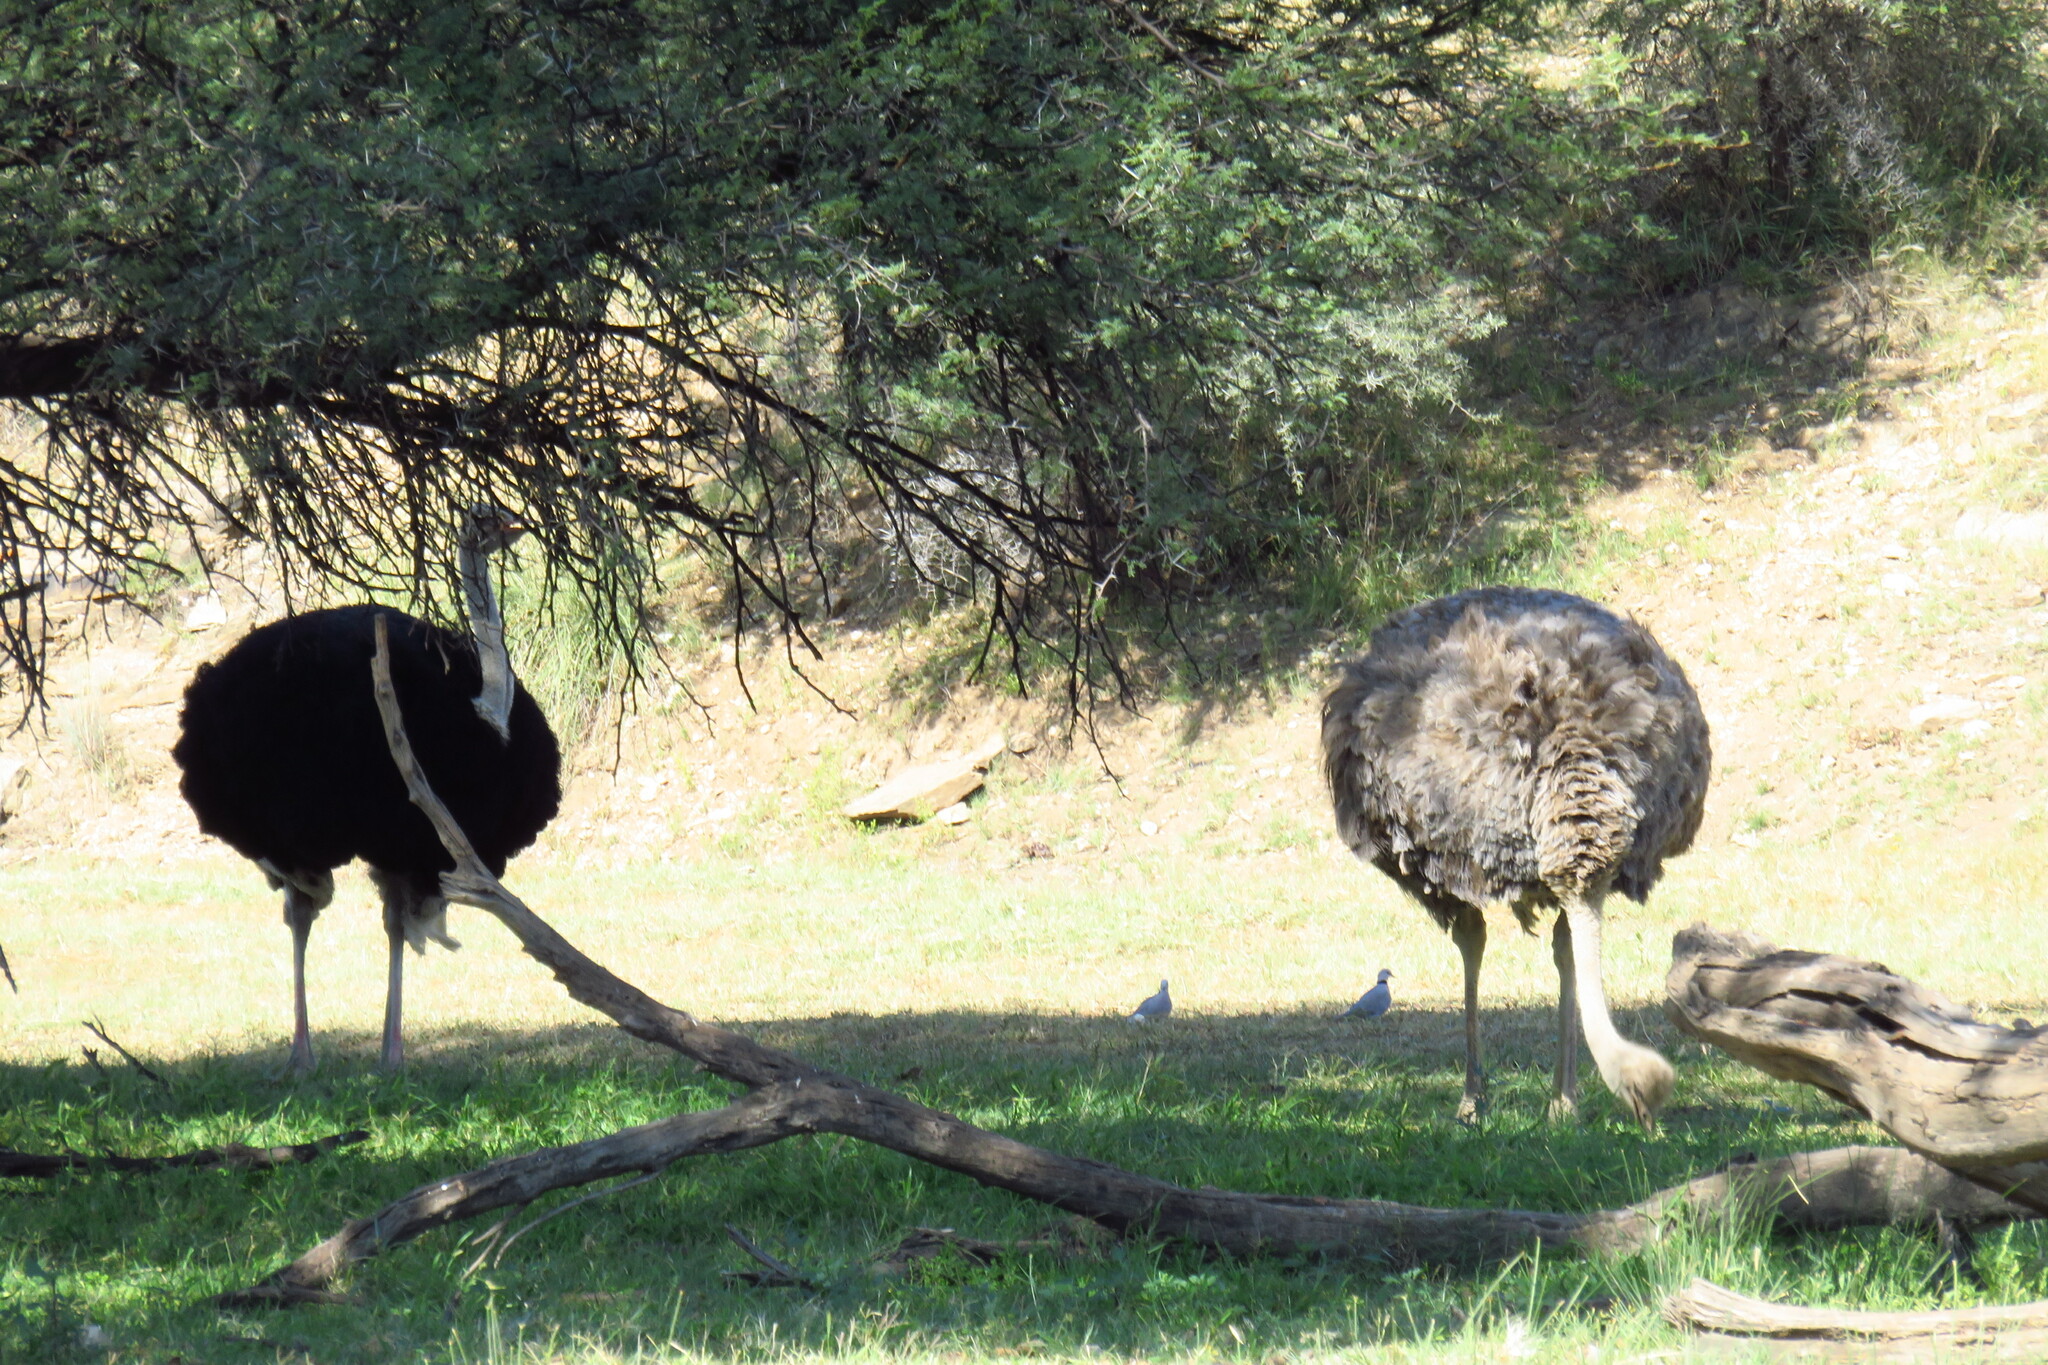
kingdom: Animalia
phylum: Chordata
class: Aves
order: Struthioniformes
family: Struthionidae
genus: Struthio
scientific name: Struthio camelus
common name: Common ostrich
